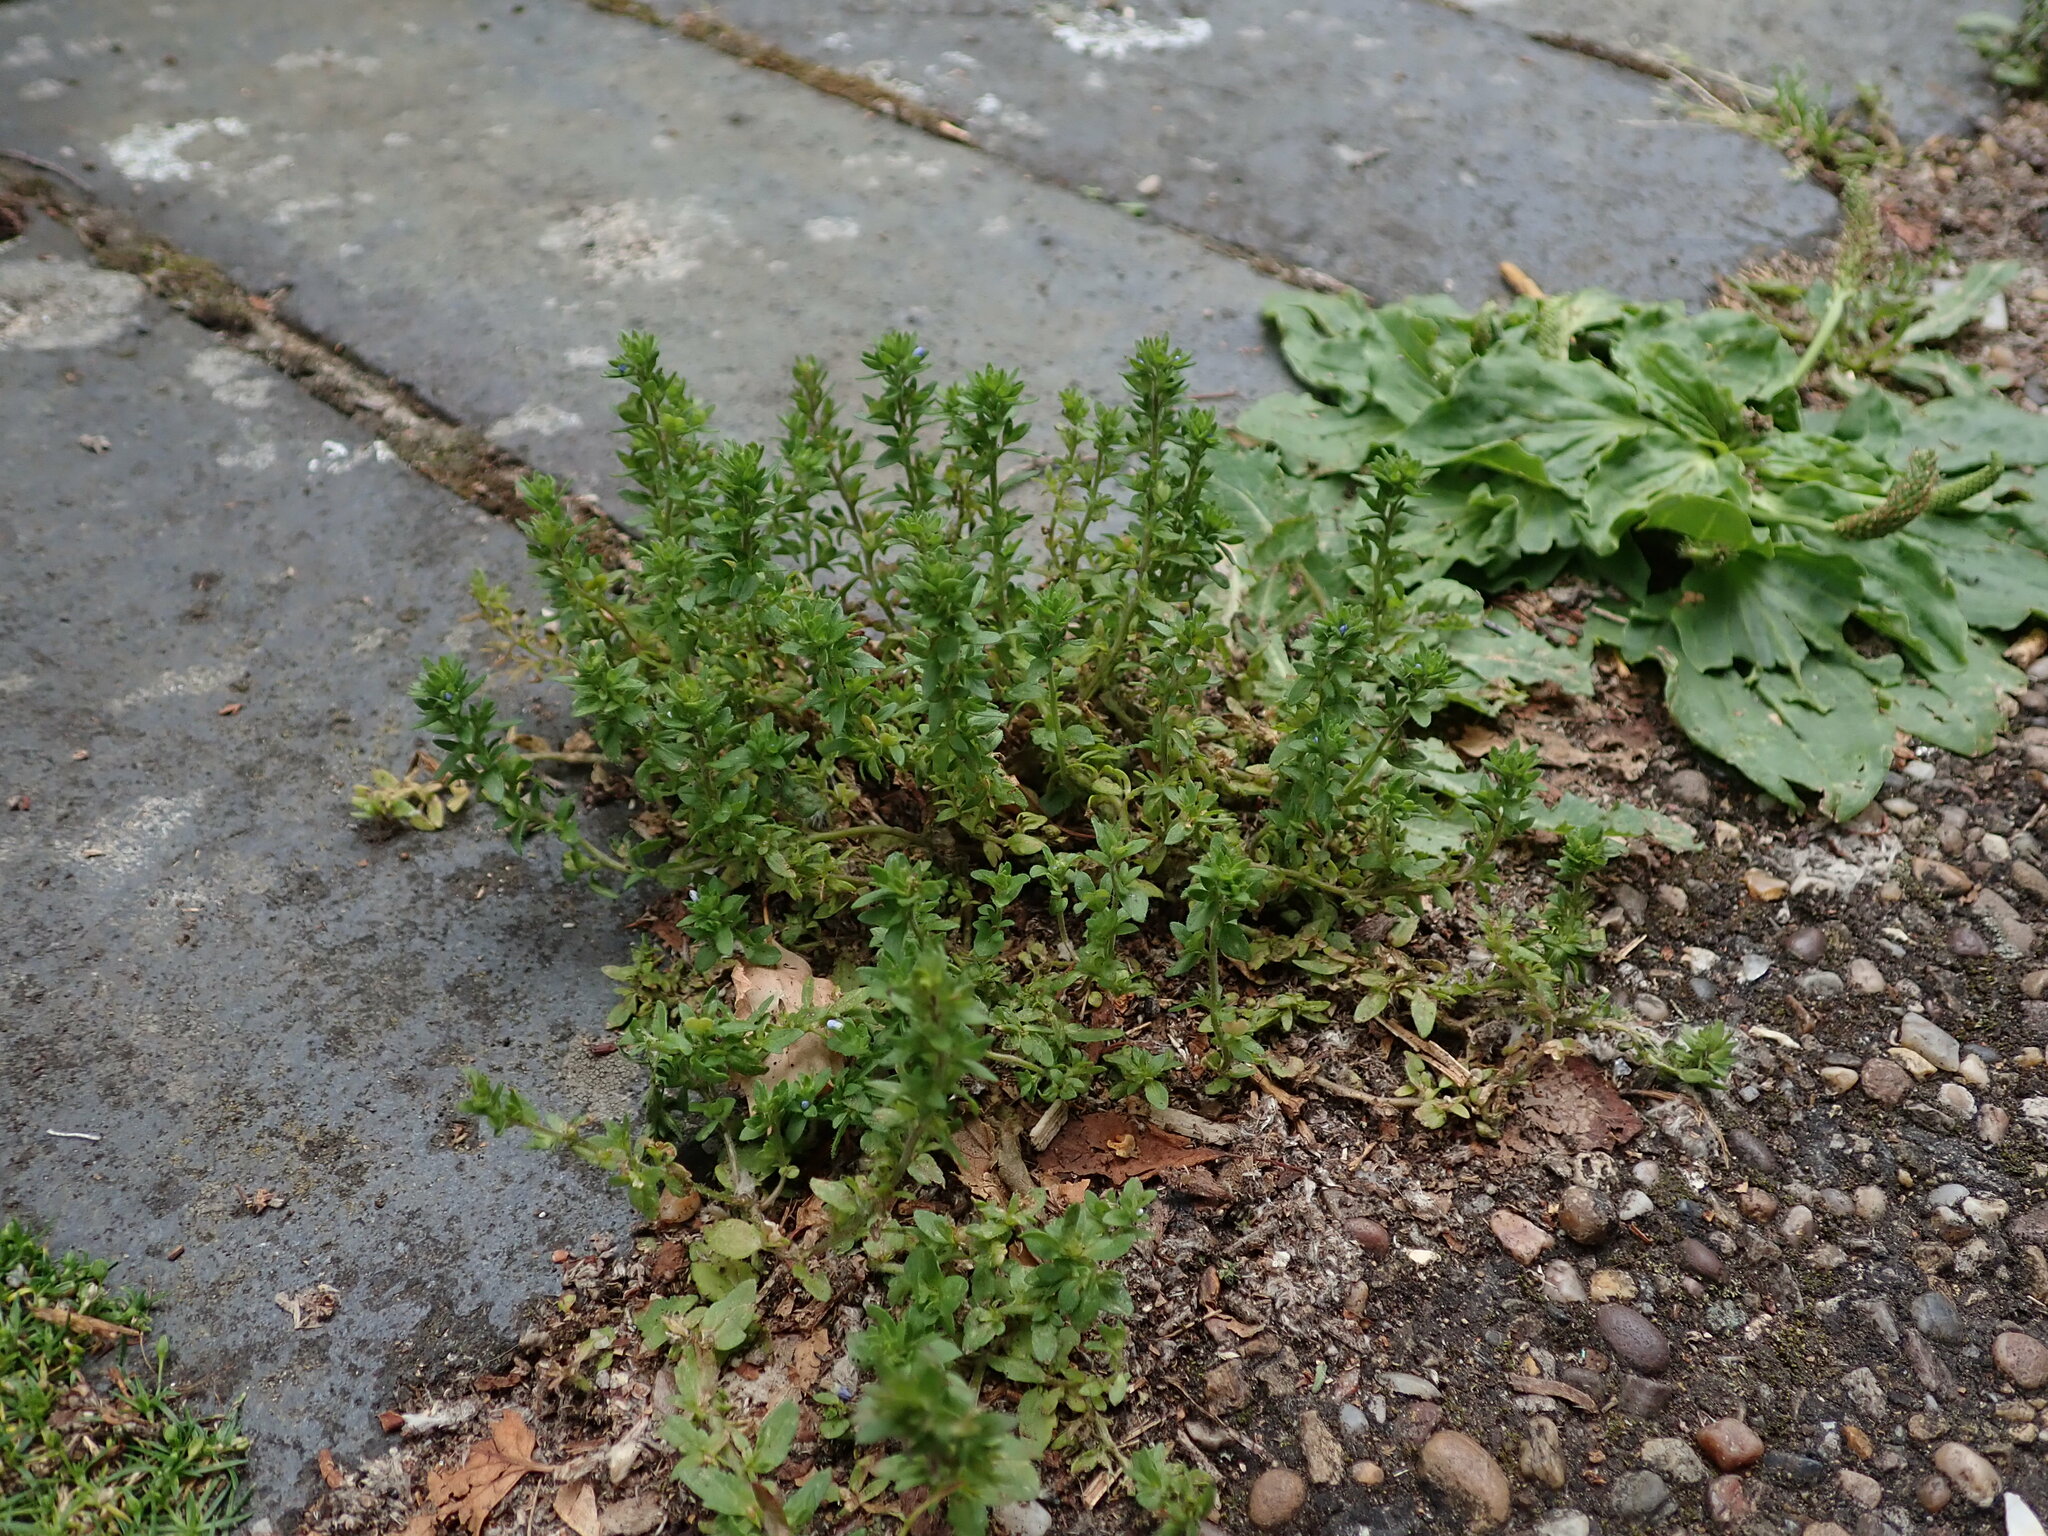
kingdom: Plantae
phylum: Tracheophyta
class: Magnoliopsida
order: Lamiales
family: Plantaginaceae
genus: Veronica
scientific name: Veronica arvensis
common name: Corn speedwell
